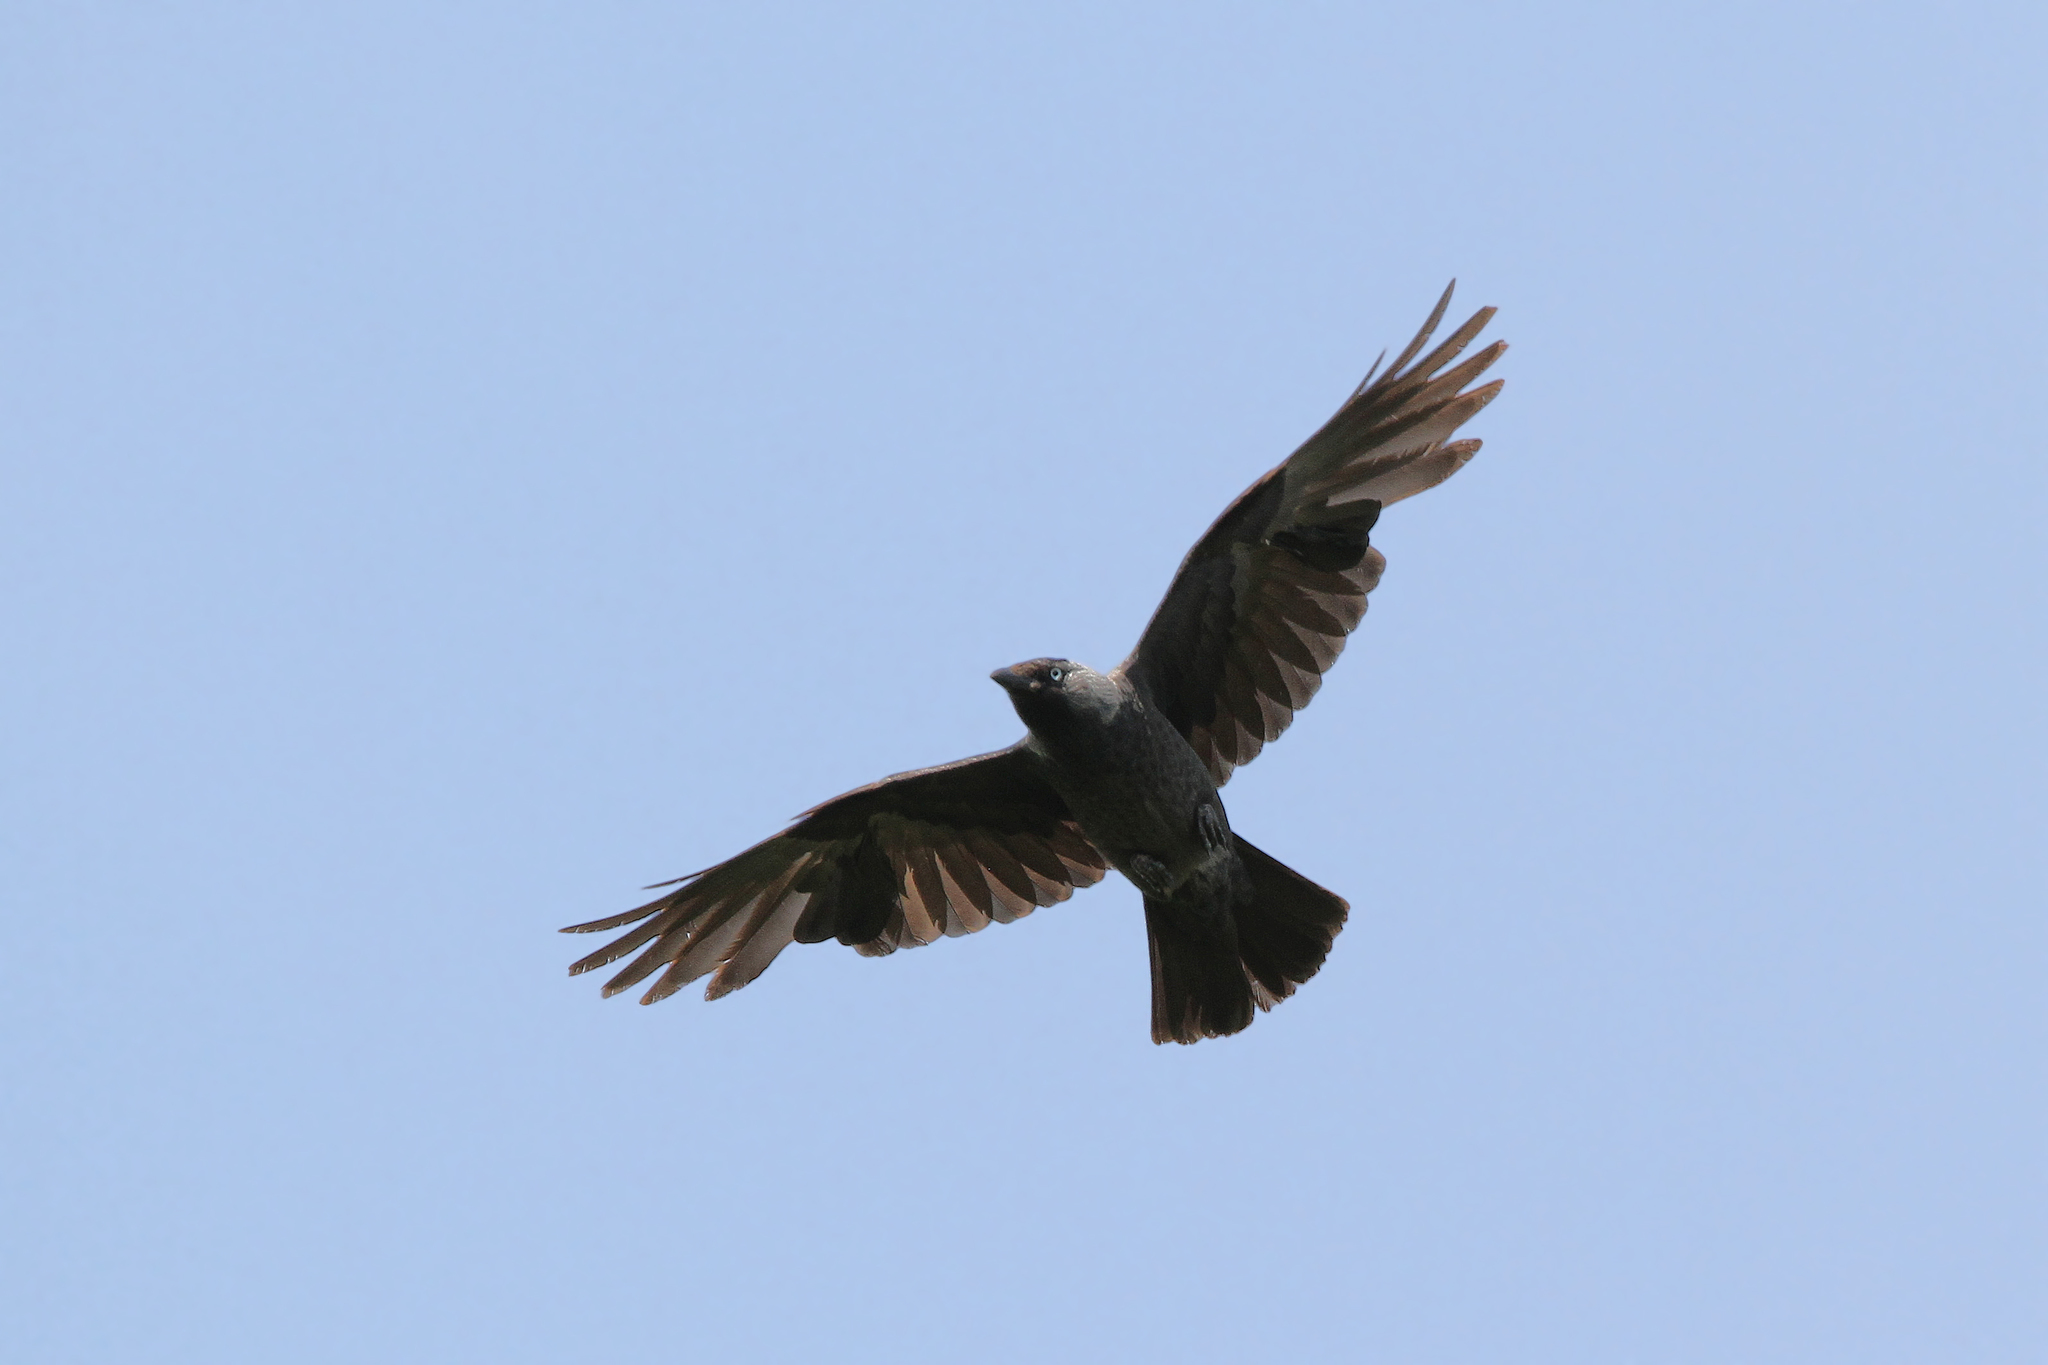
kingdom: Animalia
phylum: Chordata
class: Aves
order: Passeriformes
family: Corvidae
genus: Coloeus
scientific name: Coloeus monedula
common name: Western jackdaw
